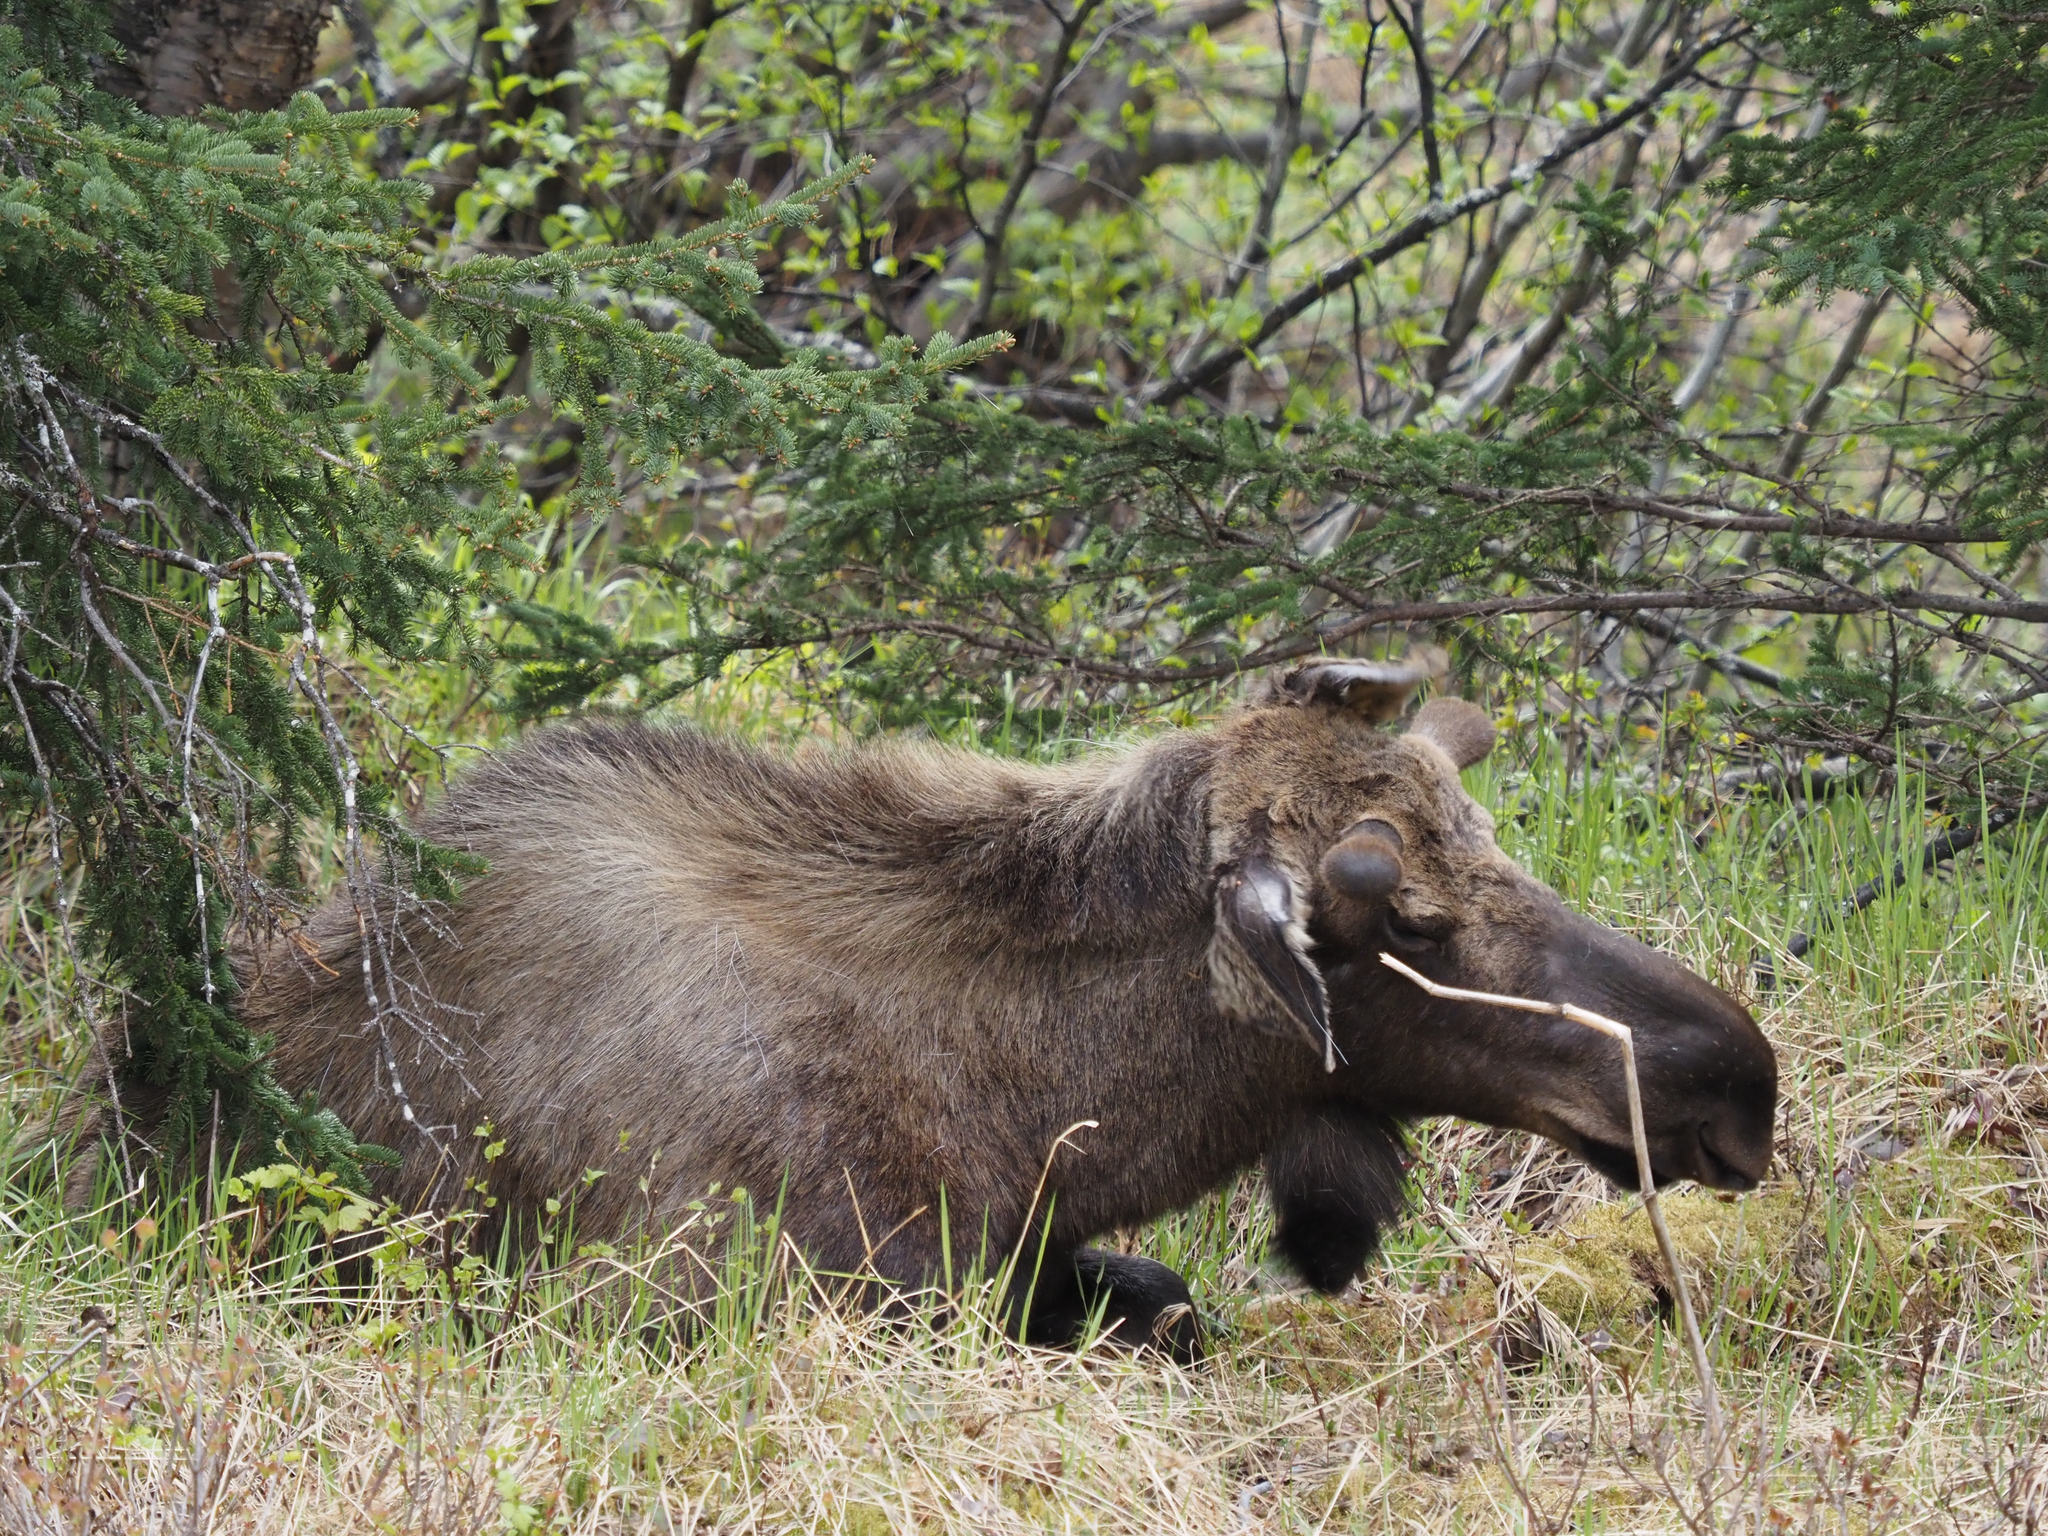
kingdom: Animalia
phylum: Chordata
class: Mammalia
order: Artiodactyla
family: Cervidae
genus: Alces
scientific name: Alces alces
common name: Moose
